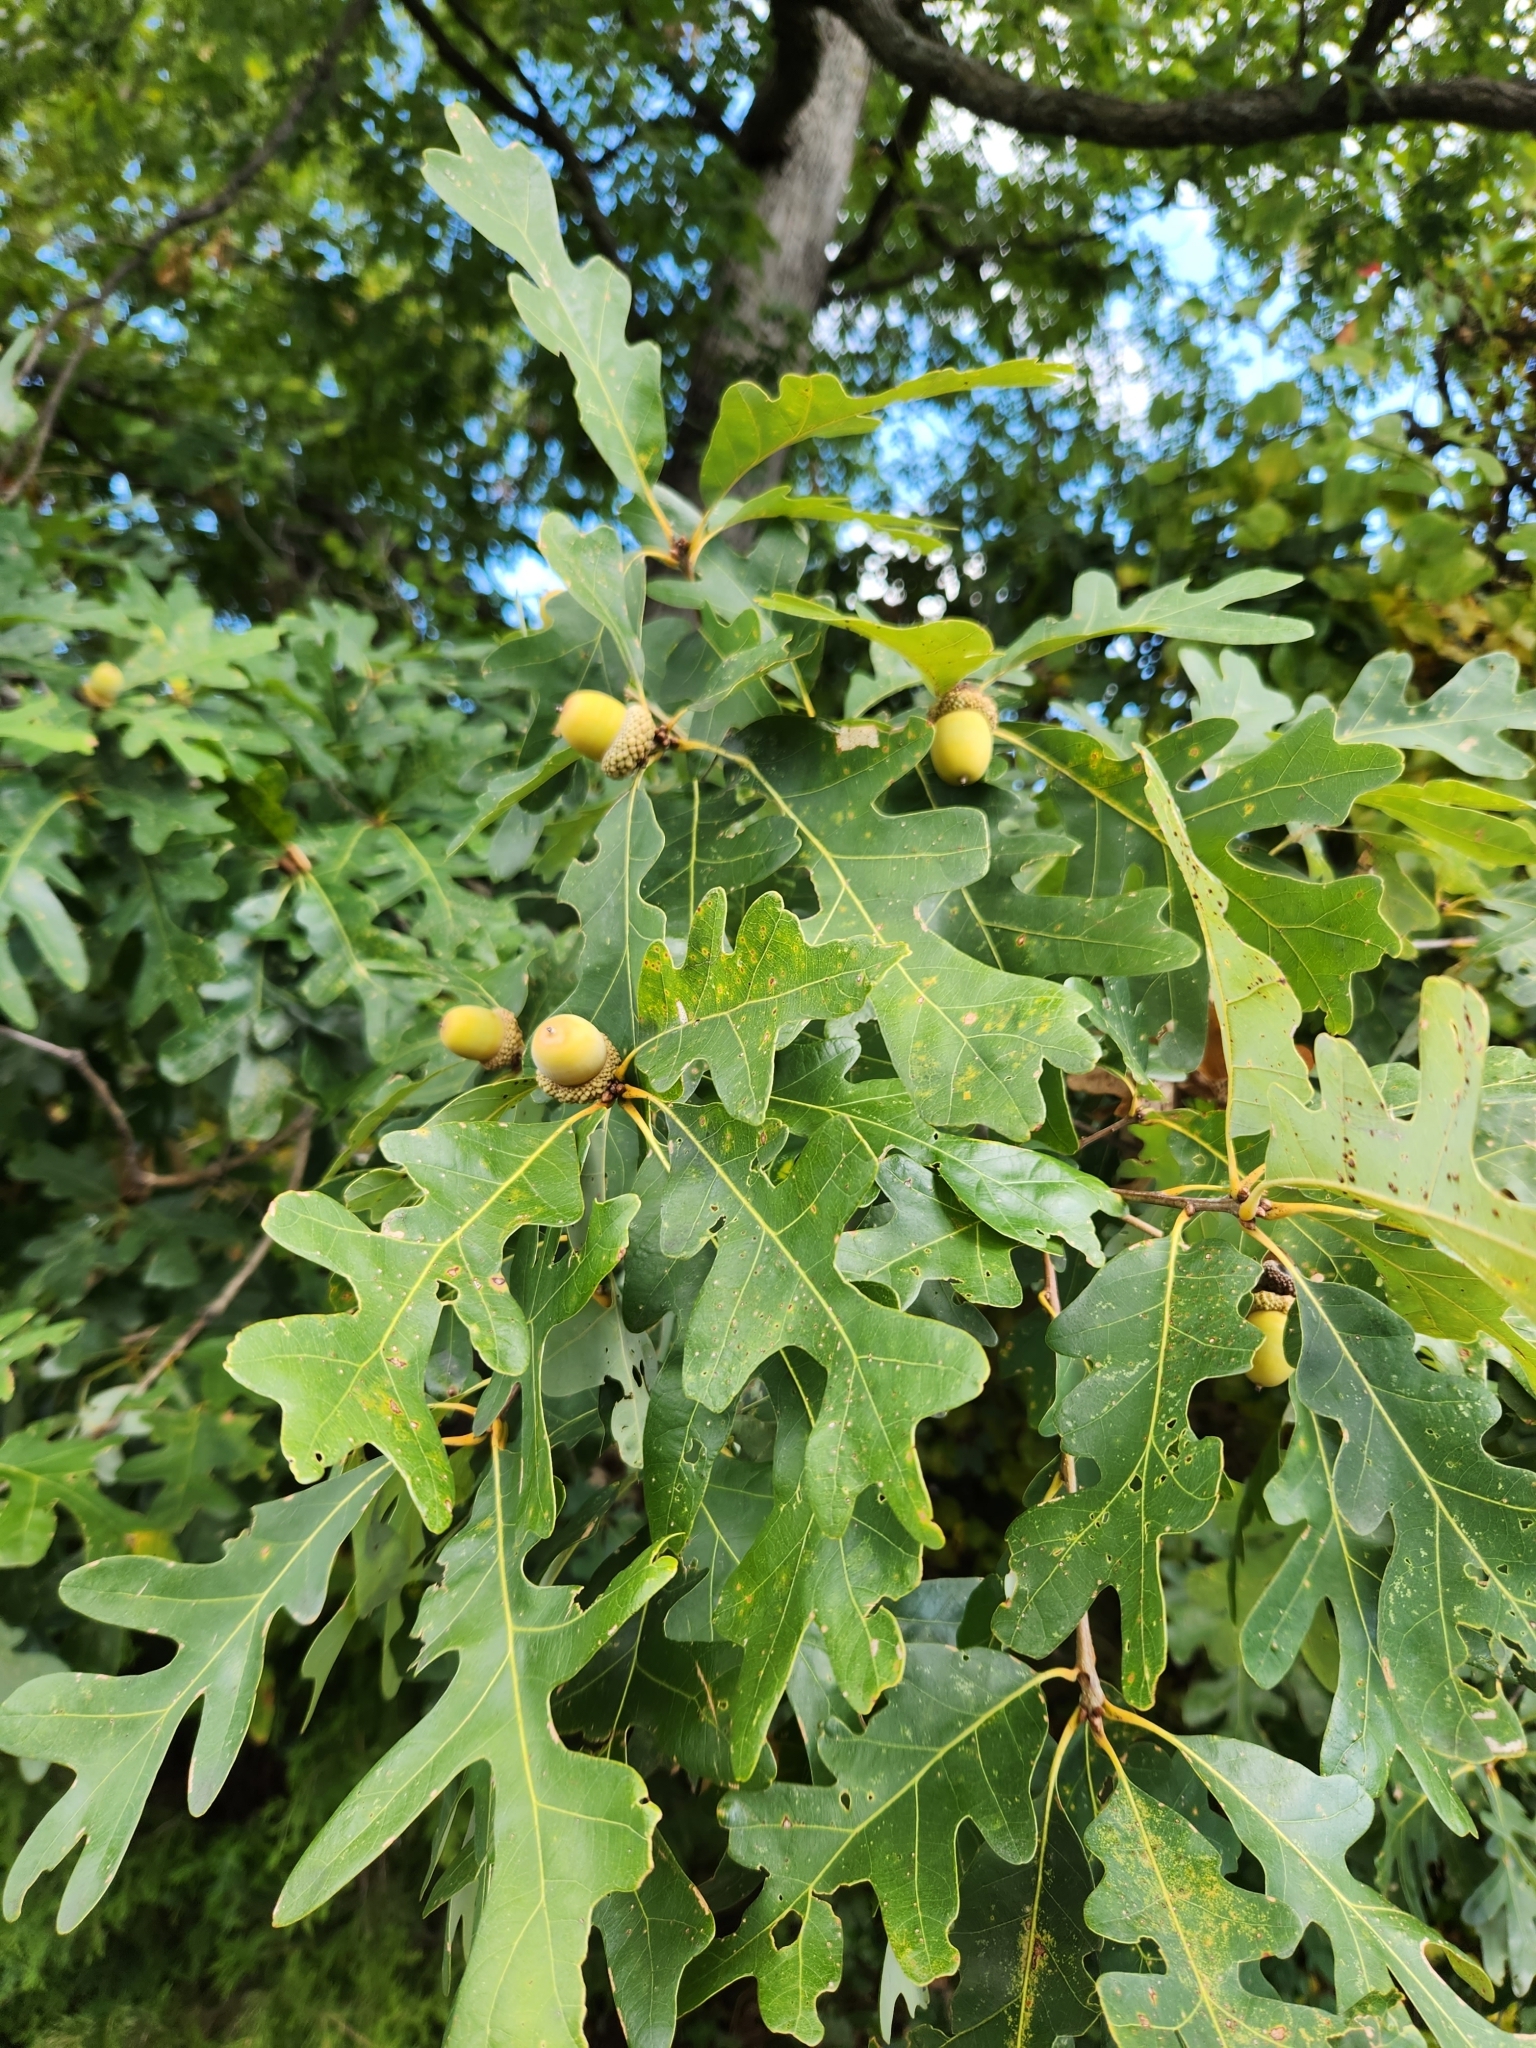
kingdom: Plantae
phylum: Tracheophyta
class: Magnoliopsida
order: Fagales
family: Fagaceae
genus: Quercus
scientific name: Quercus alba
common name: White oak
